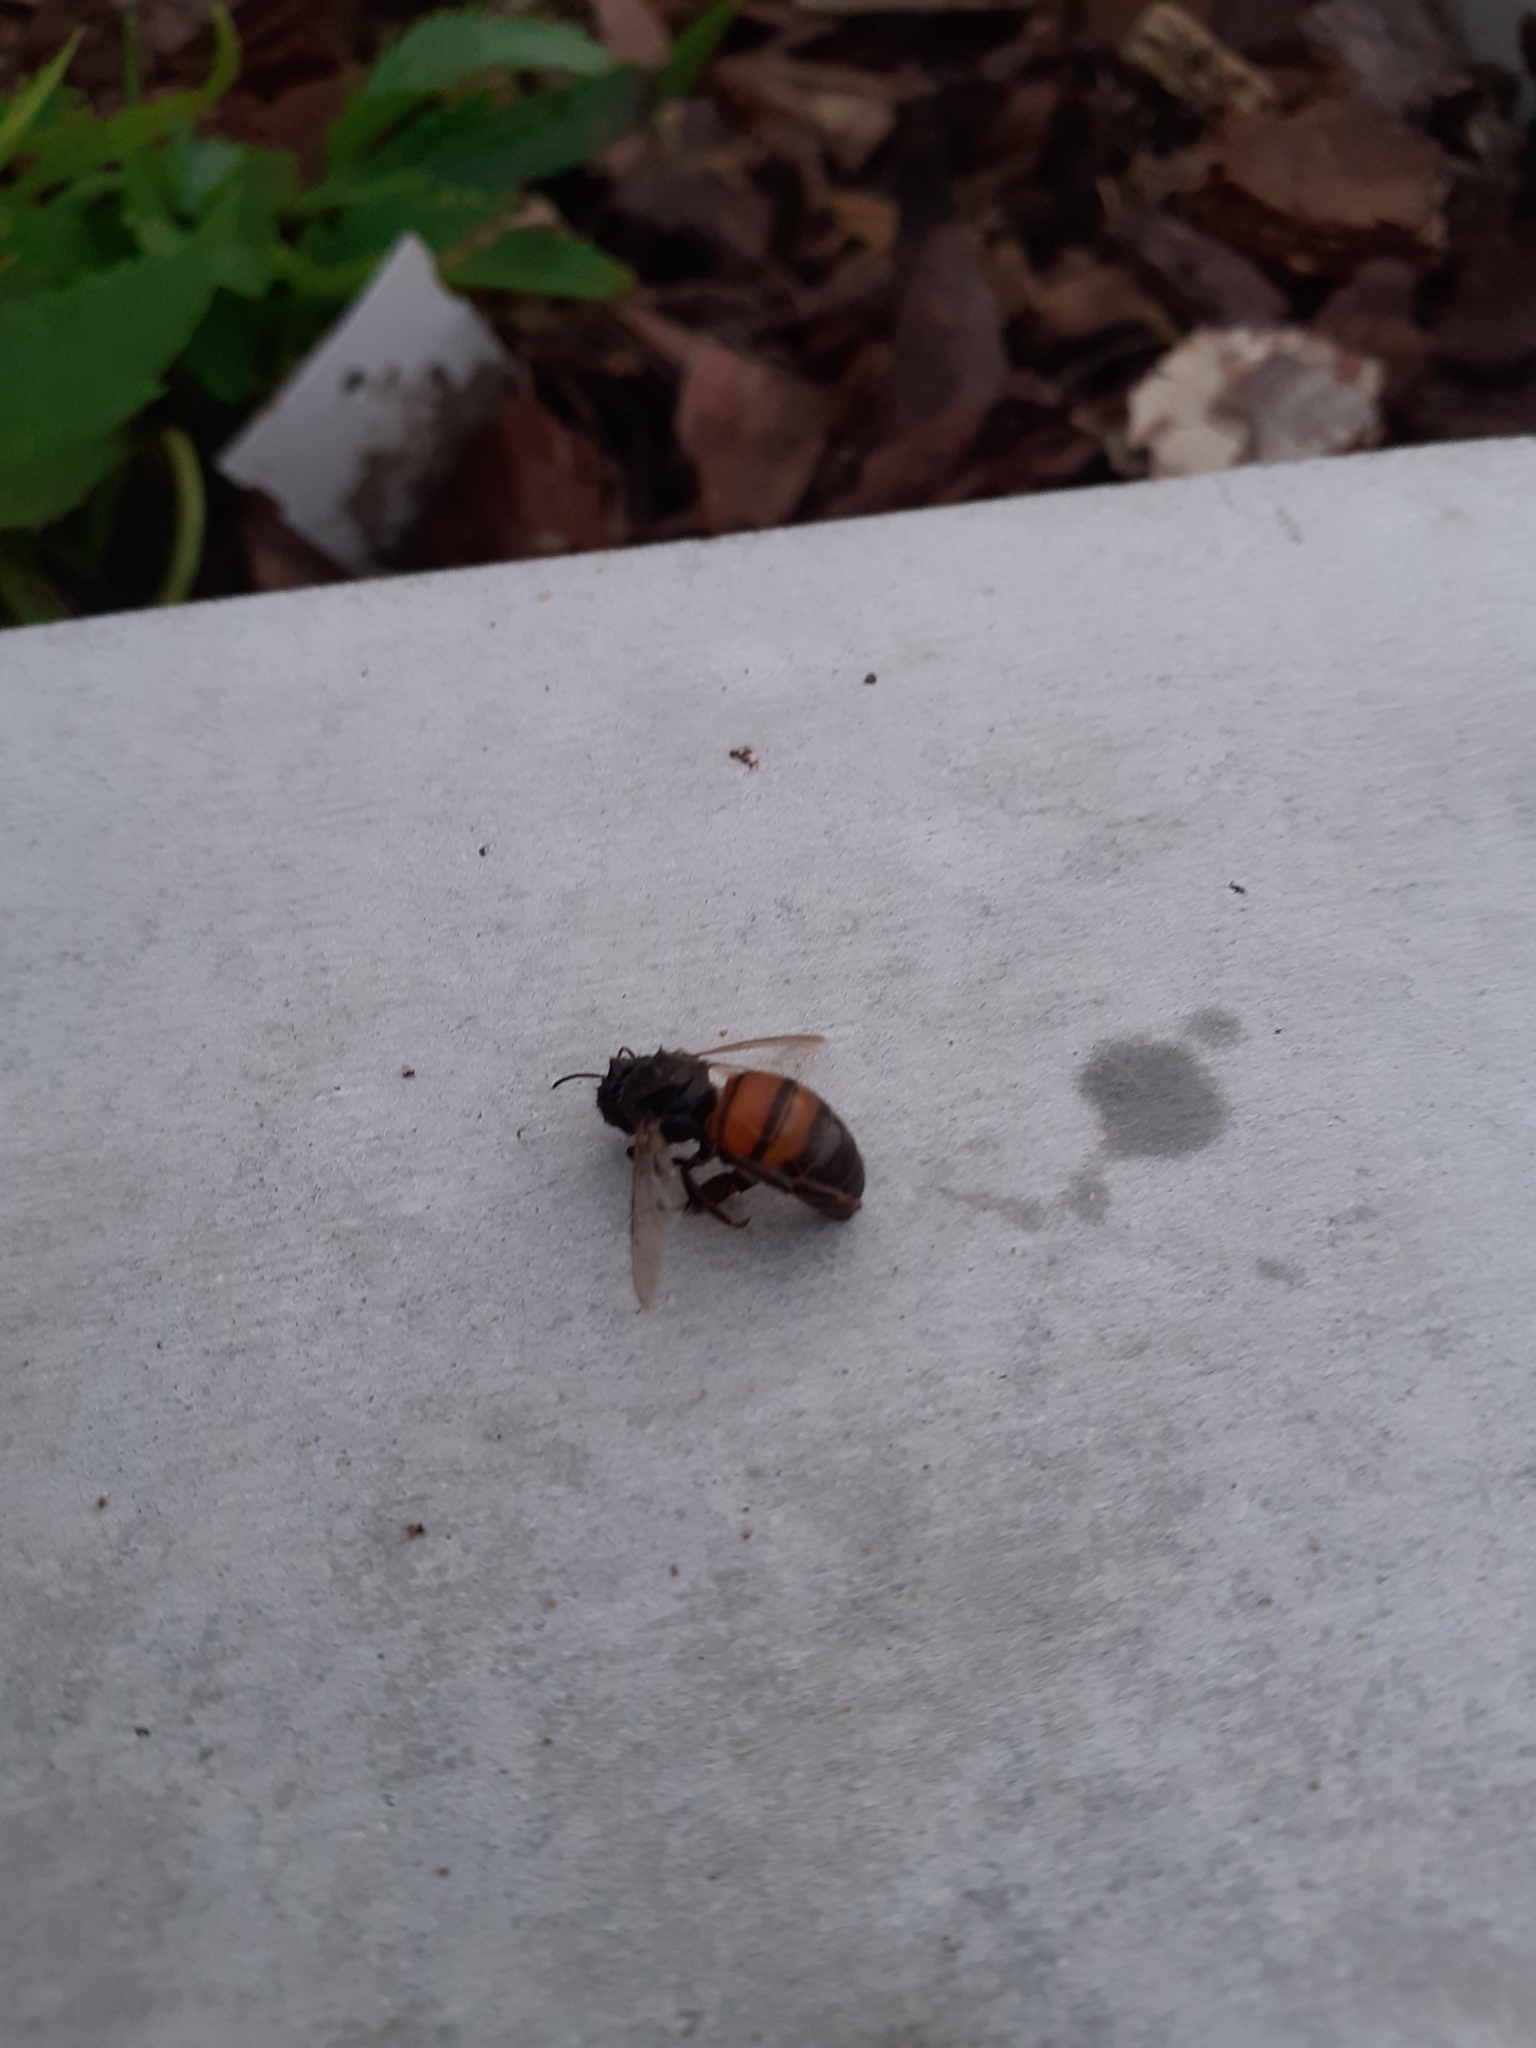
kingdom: Animalia
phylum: Arthropoda
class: Insecta
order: Hymenoptera
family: Apidae
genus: Apis
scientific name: Apis mellifera
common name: Honey bee
